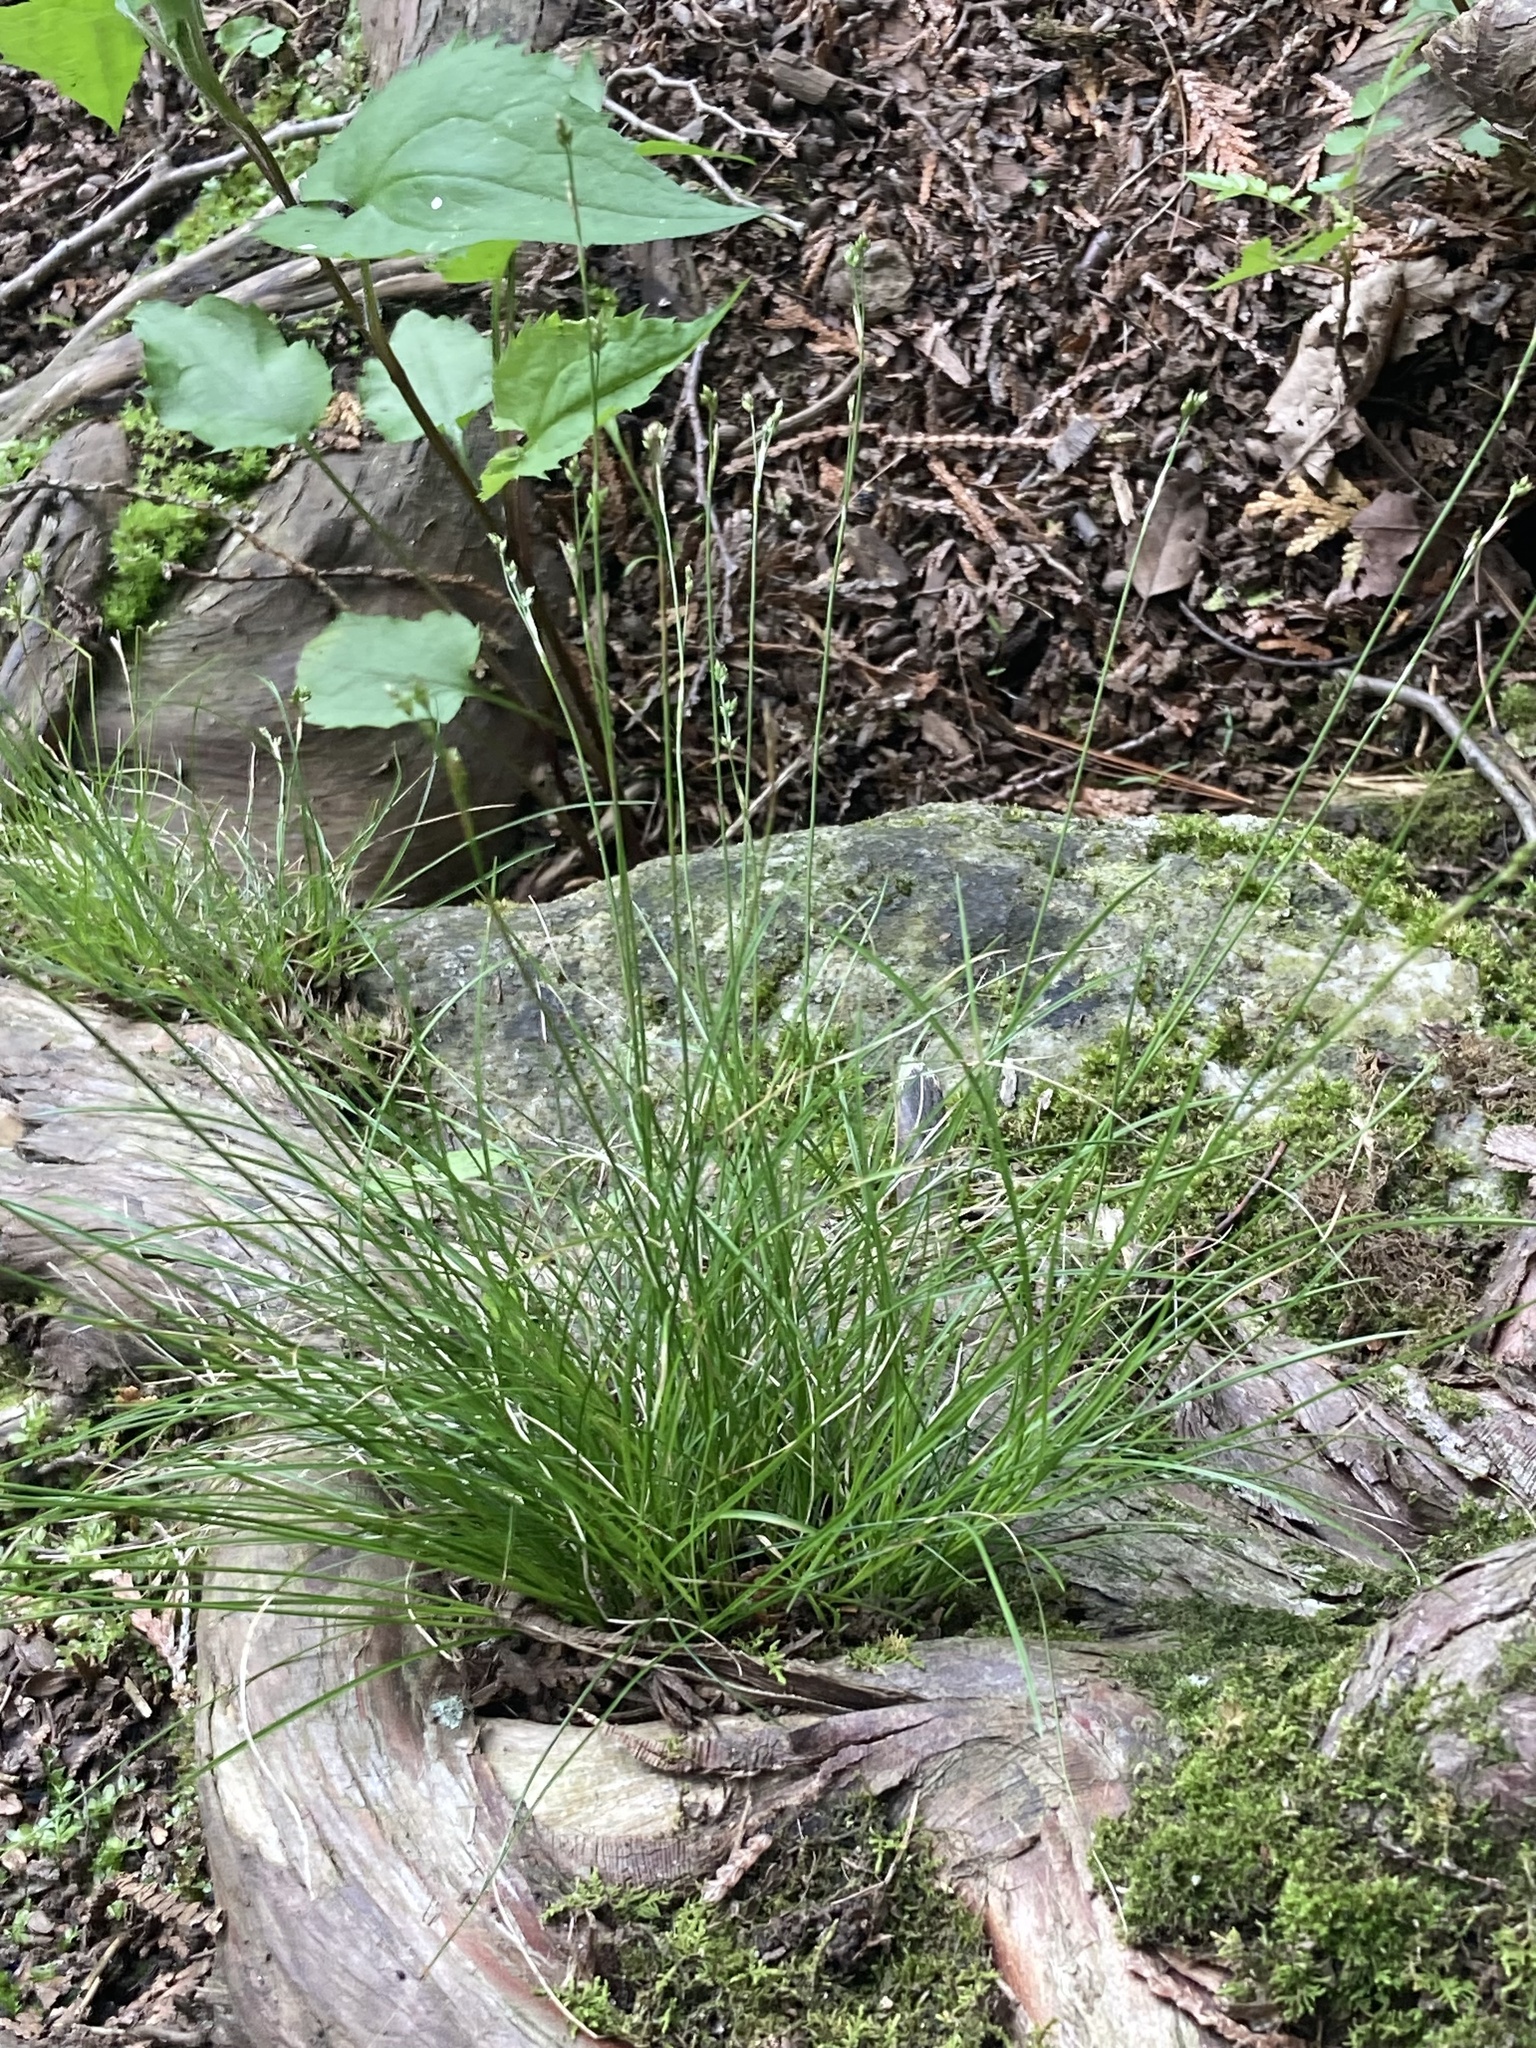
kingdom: Plantae
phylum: Tracheophyta
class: Liliopsida
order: Poales
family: Cyperaceae
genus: Carex
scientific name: Carex eburnea
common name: Bristle-leaved sedge
